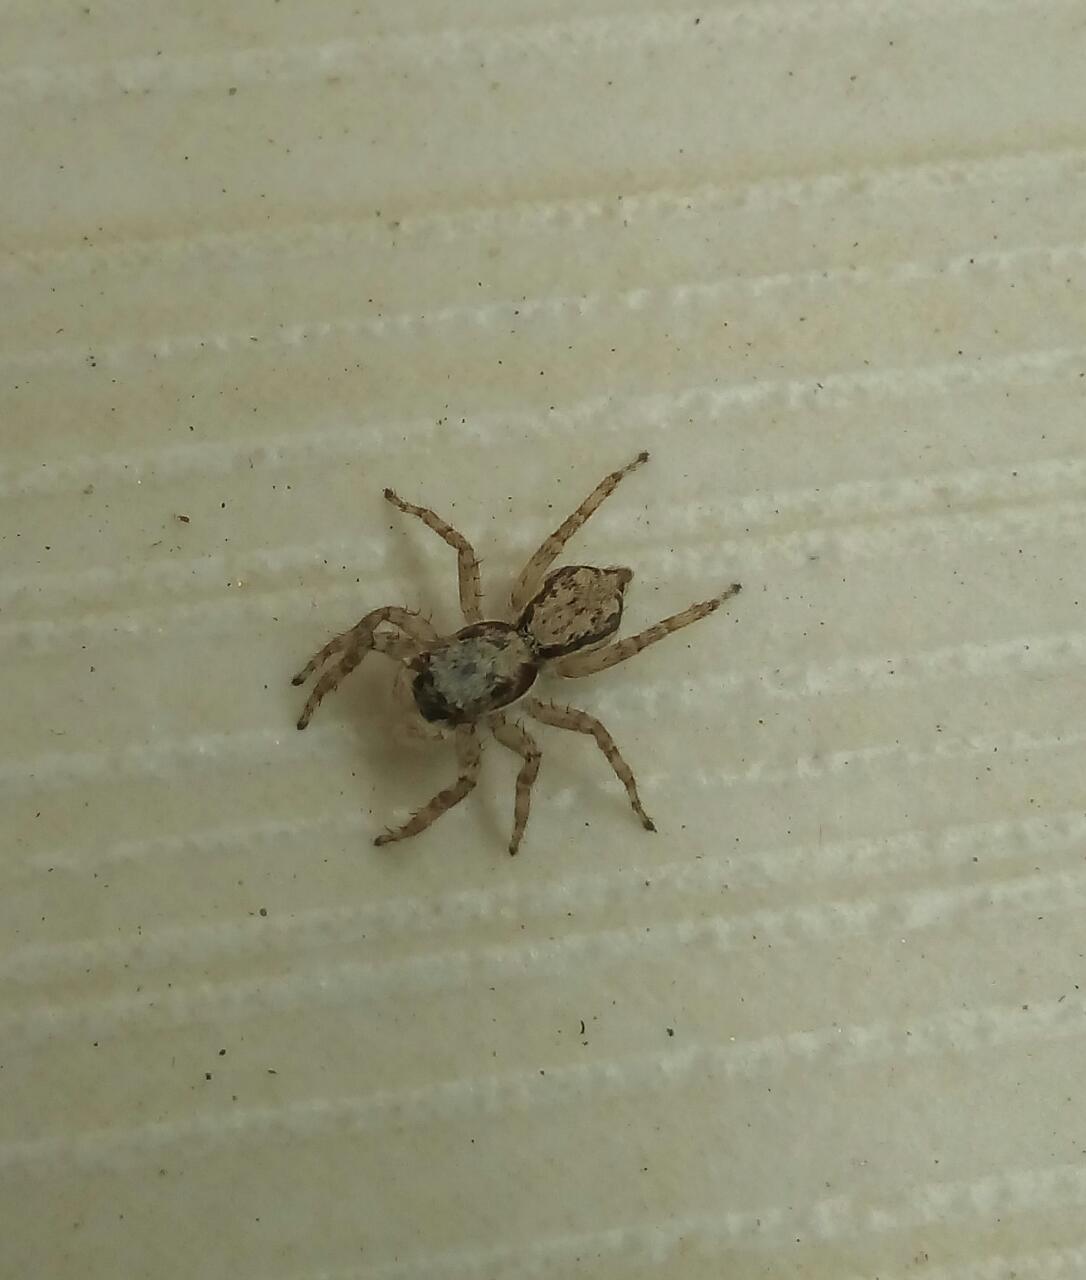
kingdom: Animalia
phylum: Arthropoda
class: Arachnida
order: Araneae
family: Salticidae
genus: Menemerus
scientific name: Menemerus bivittatus
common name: Gray wall jumper
